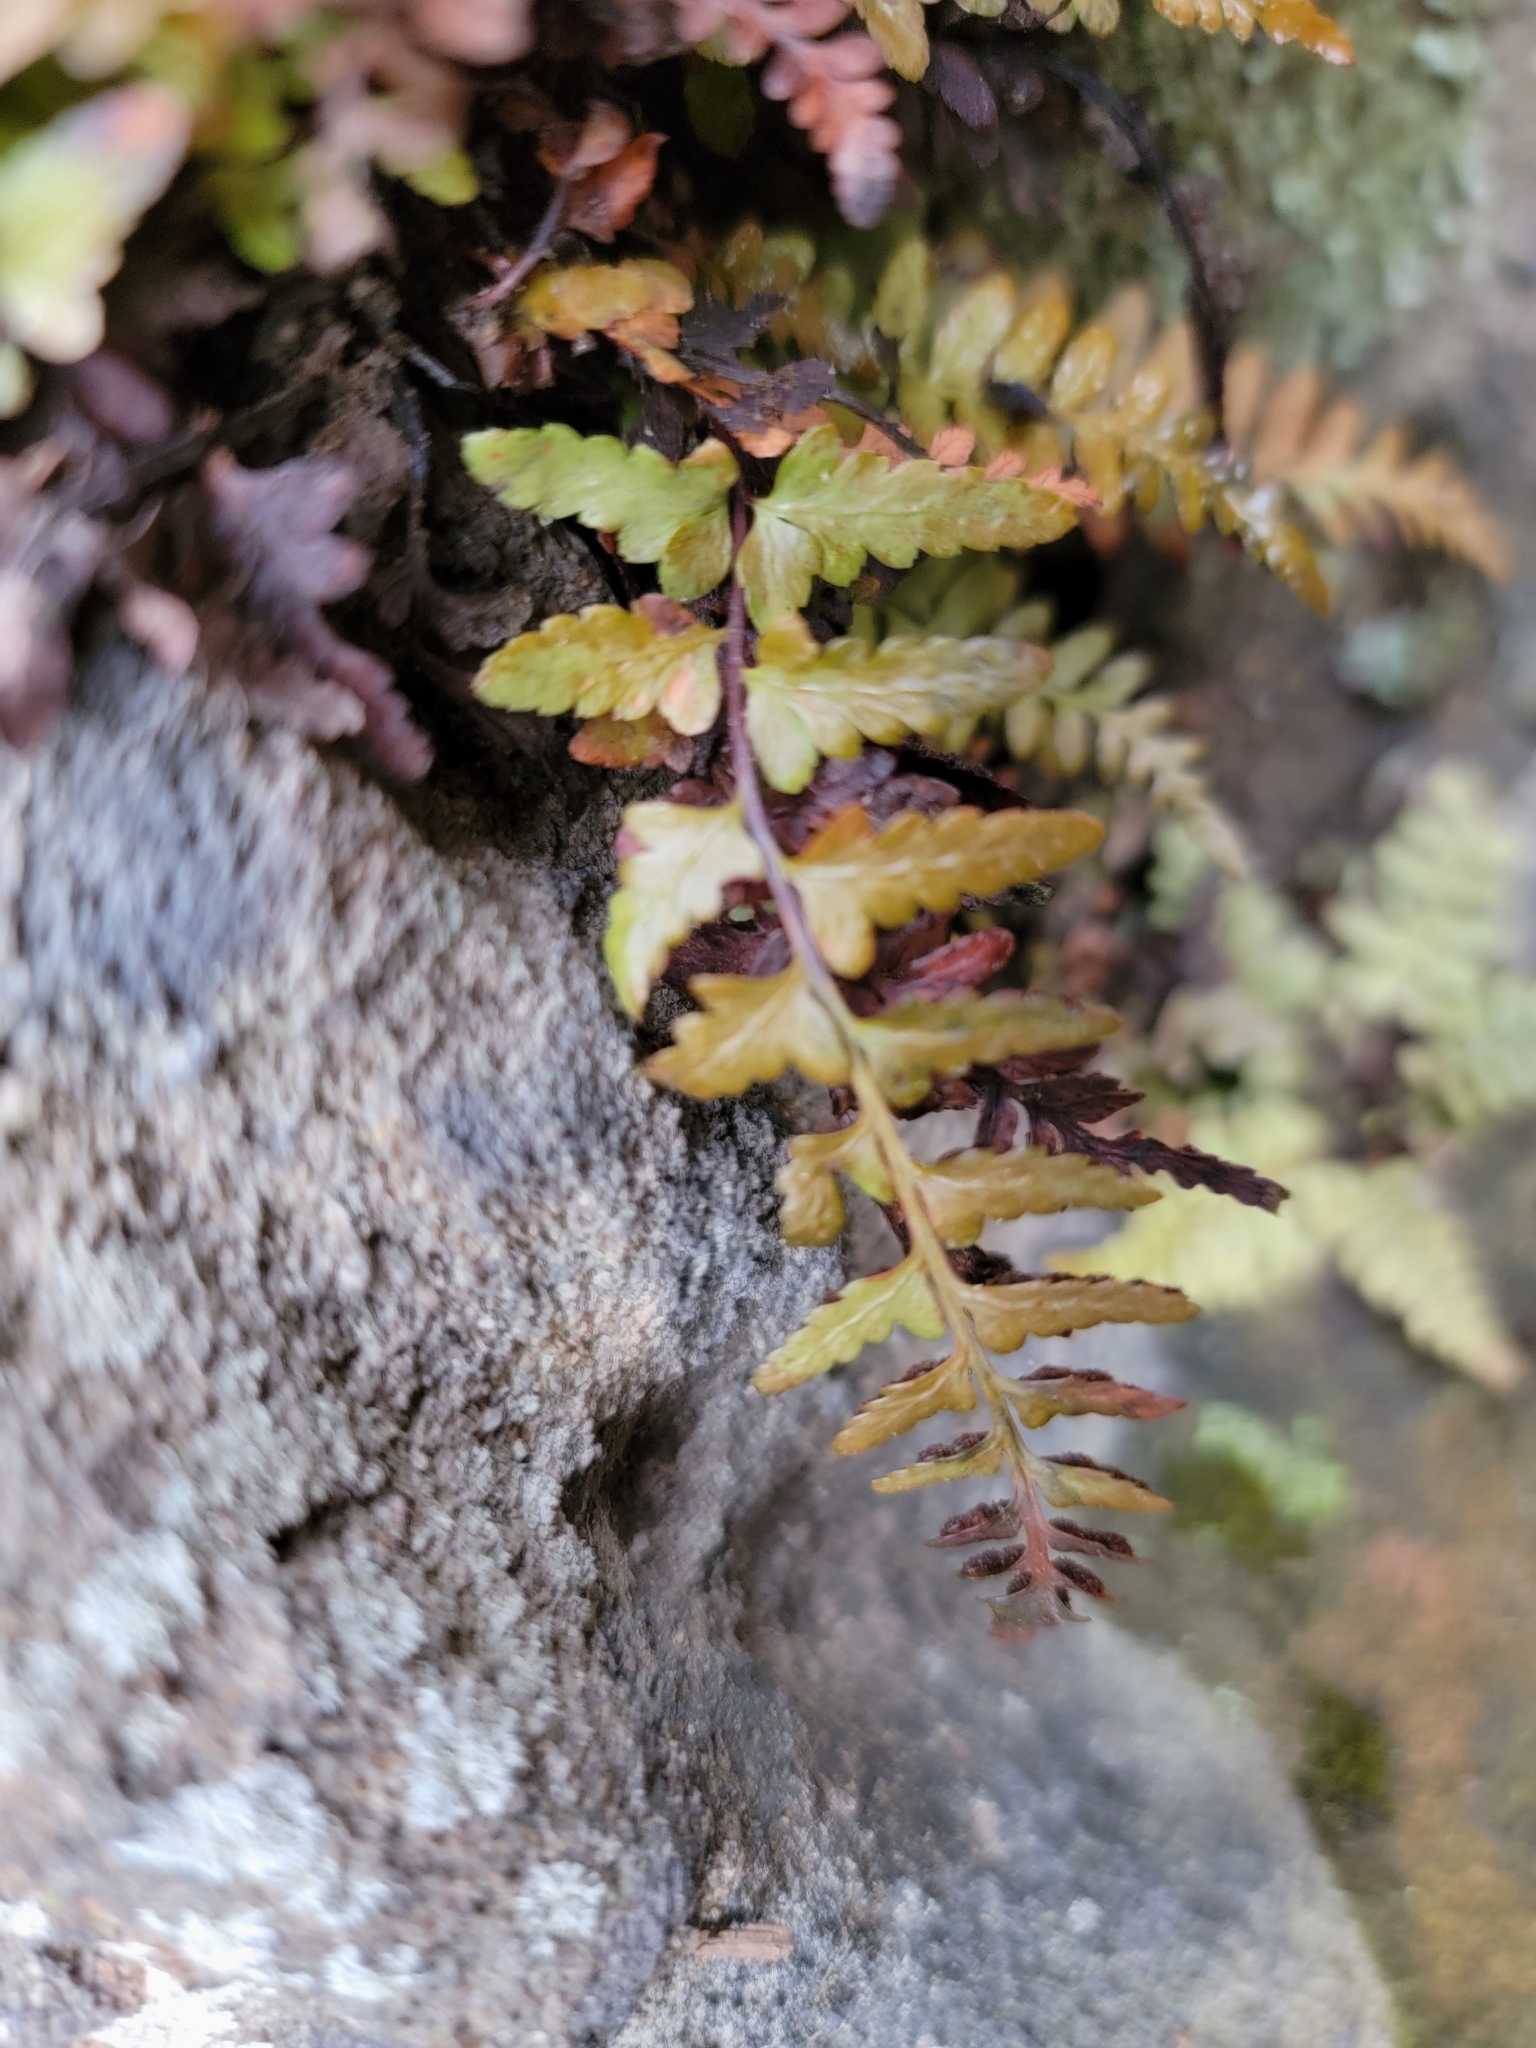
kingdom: Plantae
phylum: Tracheophyta
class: Polypodiopsida
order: Polypodiales
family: Aspleniaceae
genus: Asplenium
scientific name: Asplenium bradleyi
